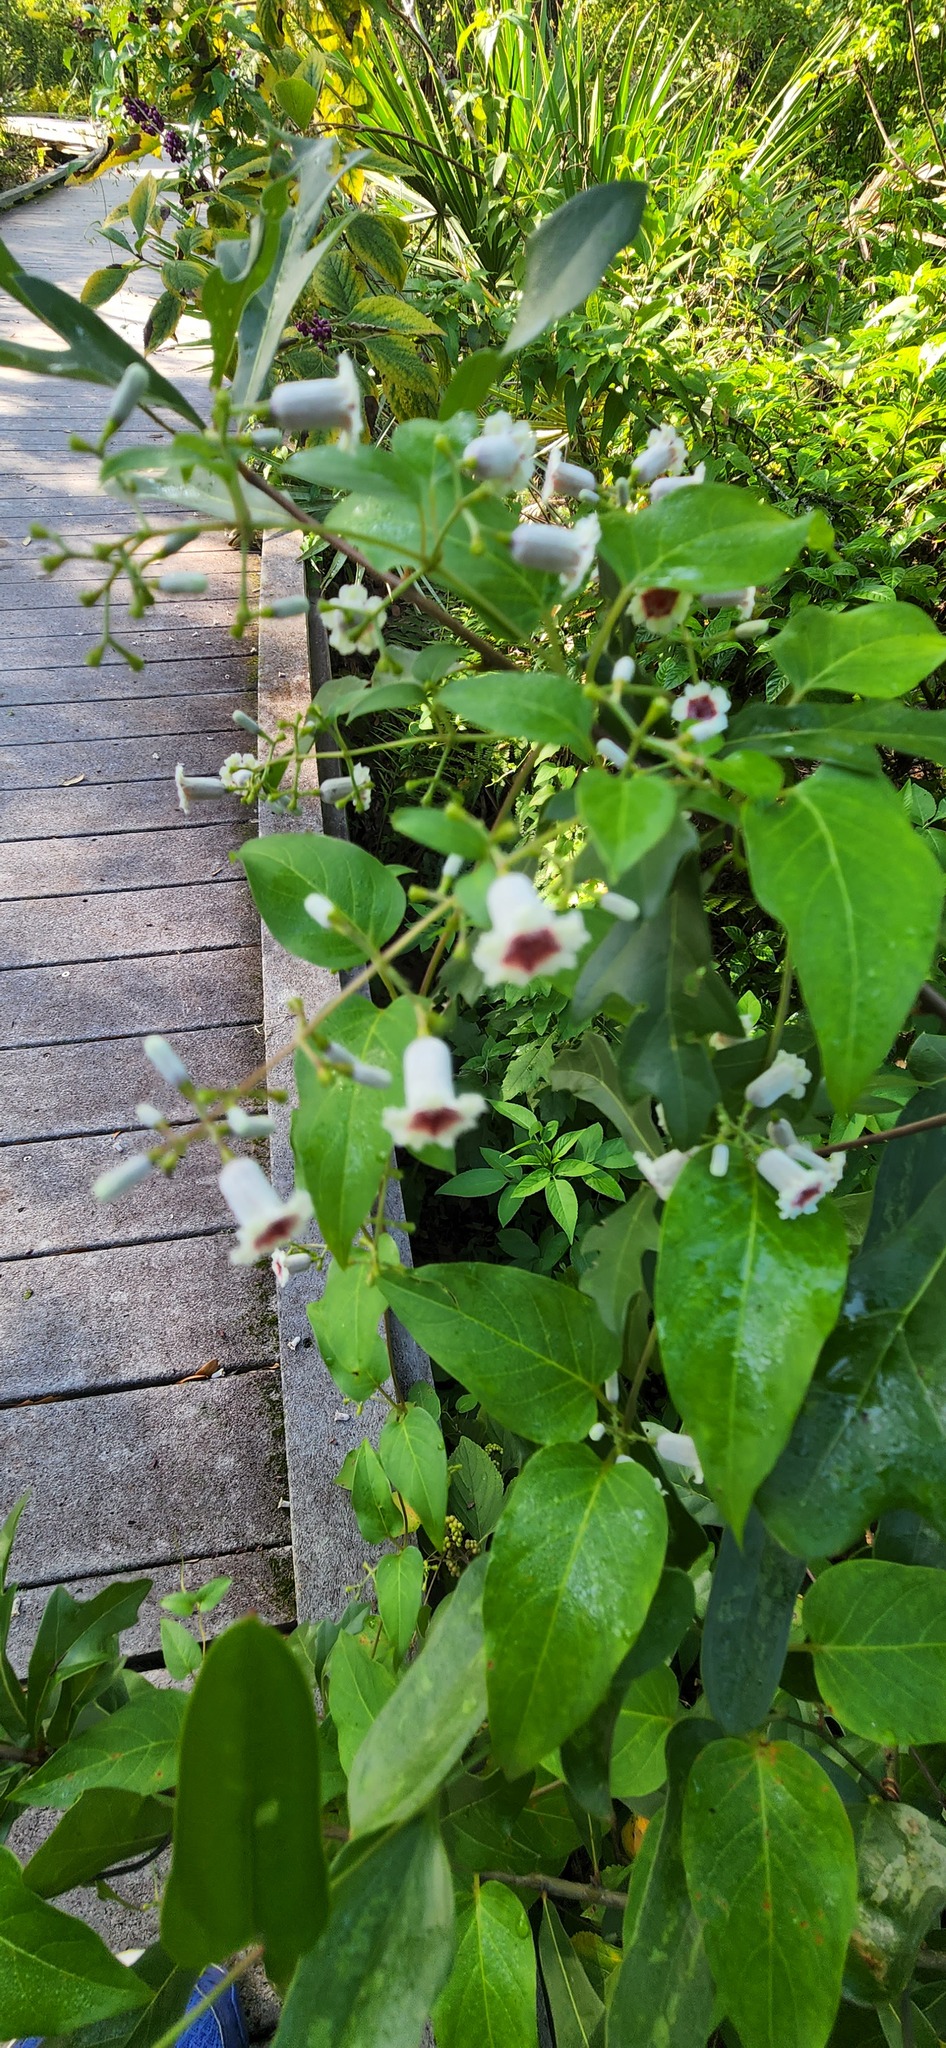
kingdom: Plantae
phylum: Tracheophyta
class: Magnoliopsida
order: Gentianales
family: Rubiaceae
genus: Paederia
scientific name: Paederia foetida
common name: Stinkvine
